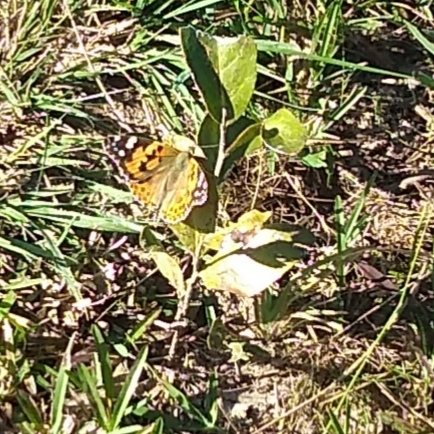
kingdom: Animalia
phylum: Arthropoda
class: Insecta
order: Lepidoptera
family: Nymphalidae
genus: Vanessa
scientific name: Vanessa cardui
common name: Painted lady
